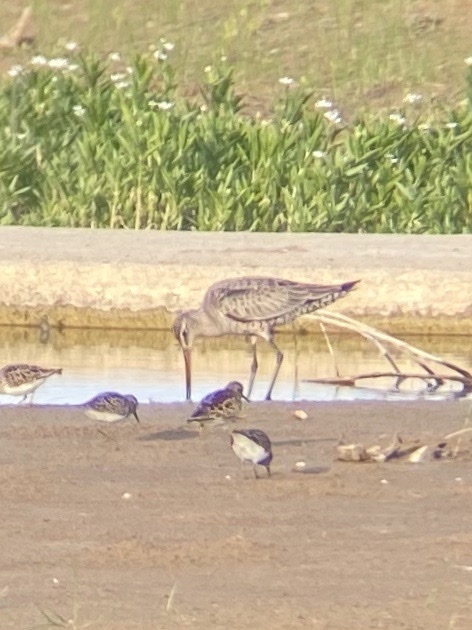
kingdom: Animalia
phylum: Chordata
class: Aves
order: Charadriiformes
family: Scolopacidae
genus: Limosa
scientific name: Limosa haemastica
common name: Hudsonian godwit
